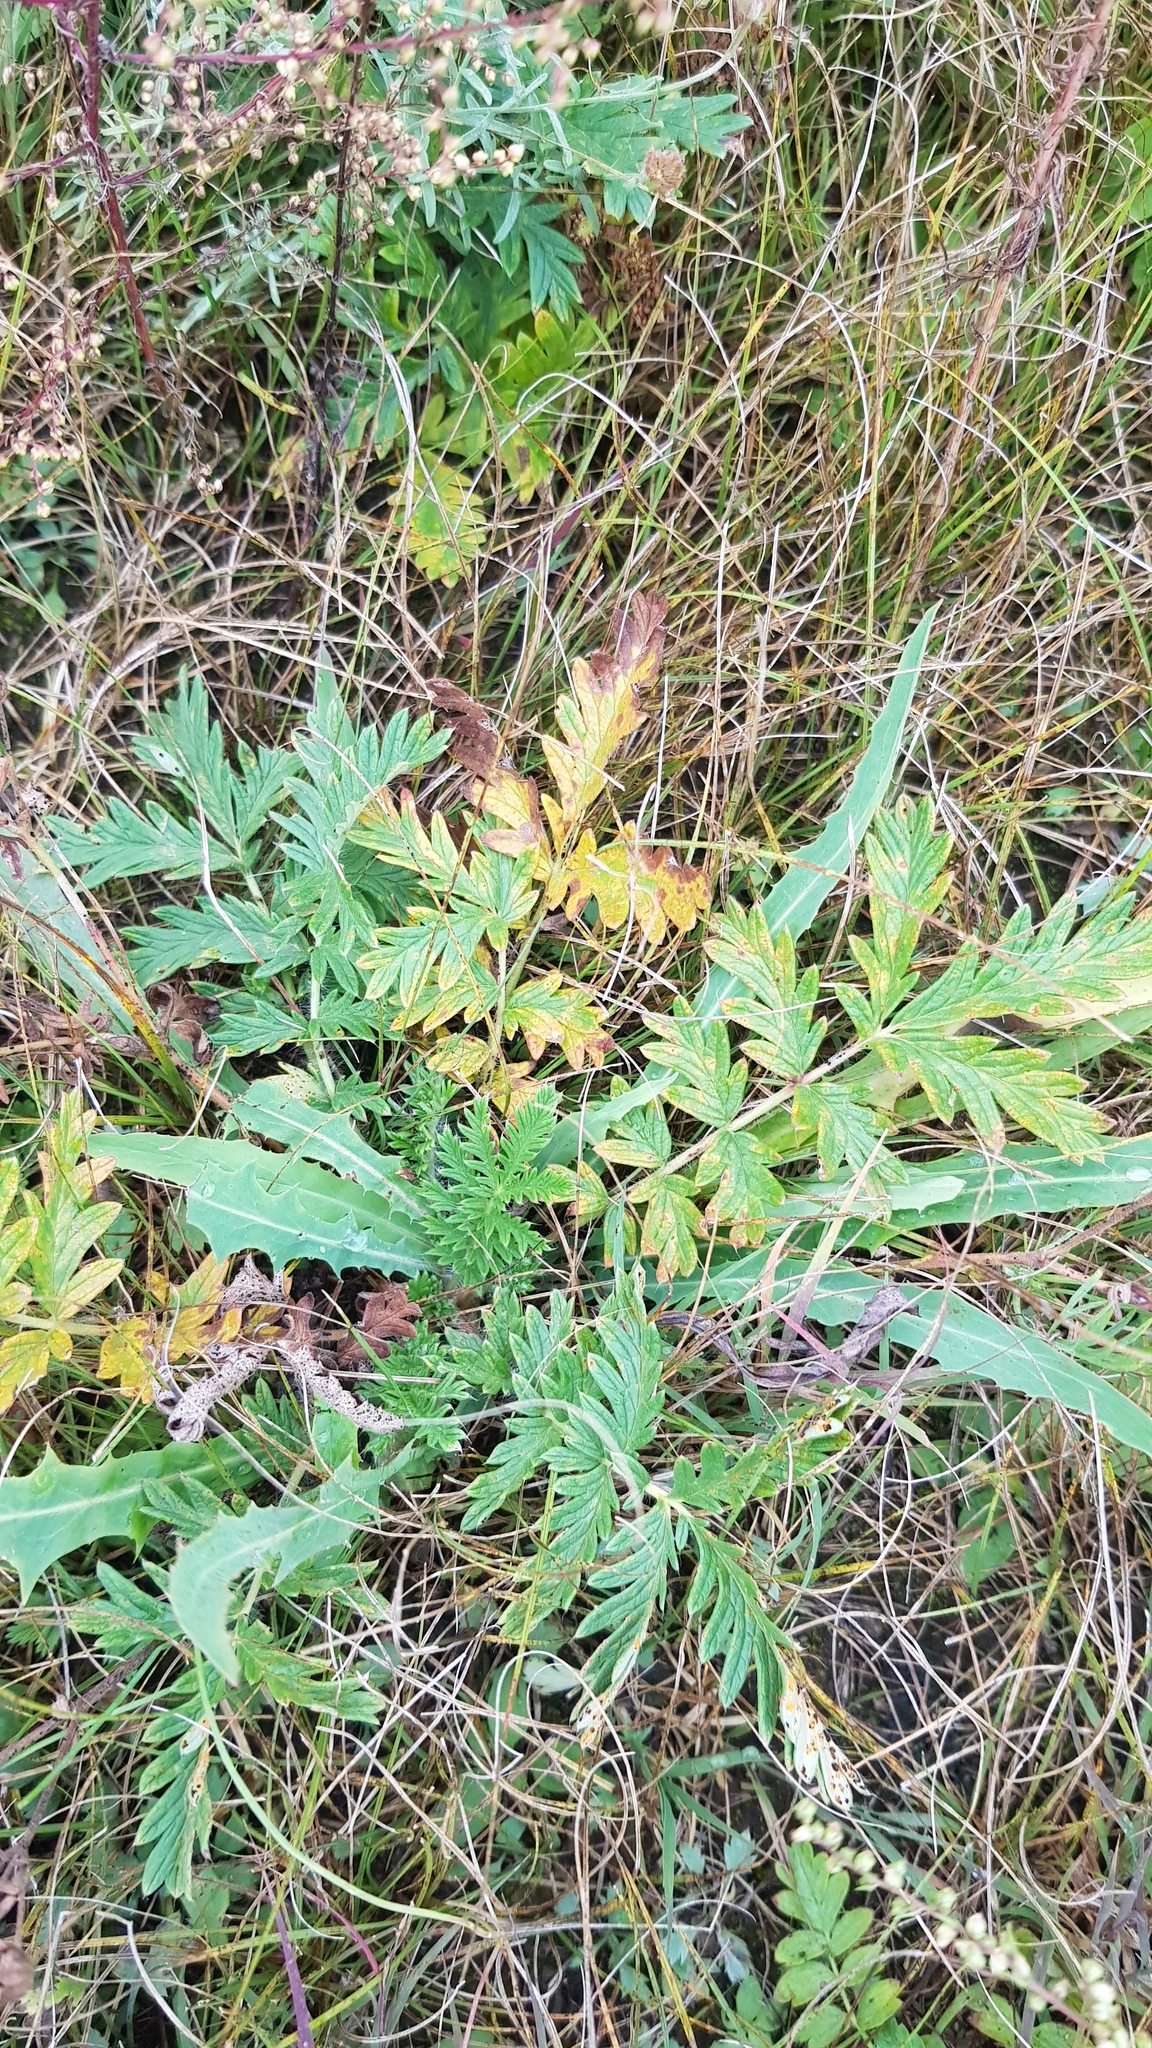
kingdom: Plantae
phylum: Tracheophyta
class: Magnoliopsida
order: Rosales
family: Rosaceae
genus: Potentilla
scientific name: Potentilla tanacetifolia
